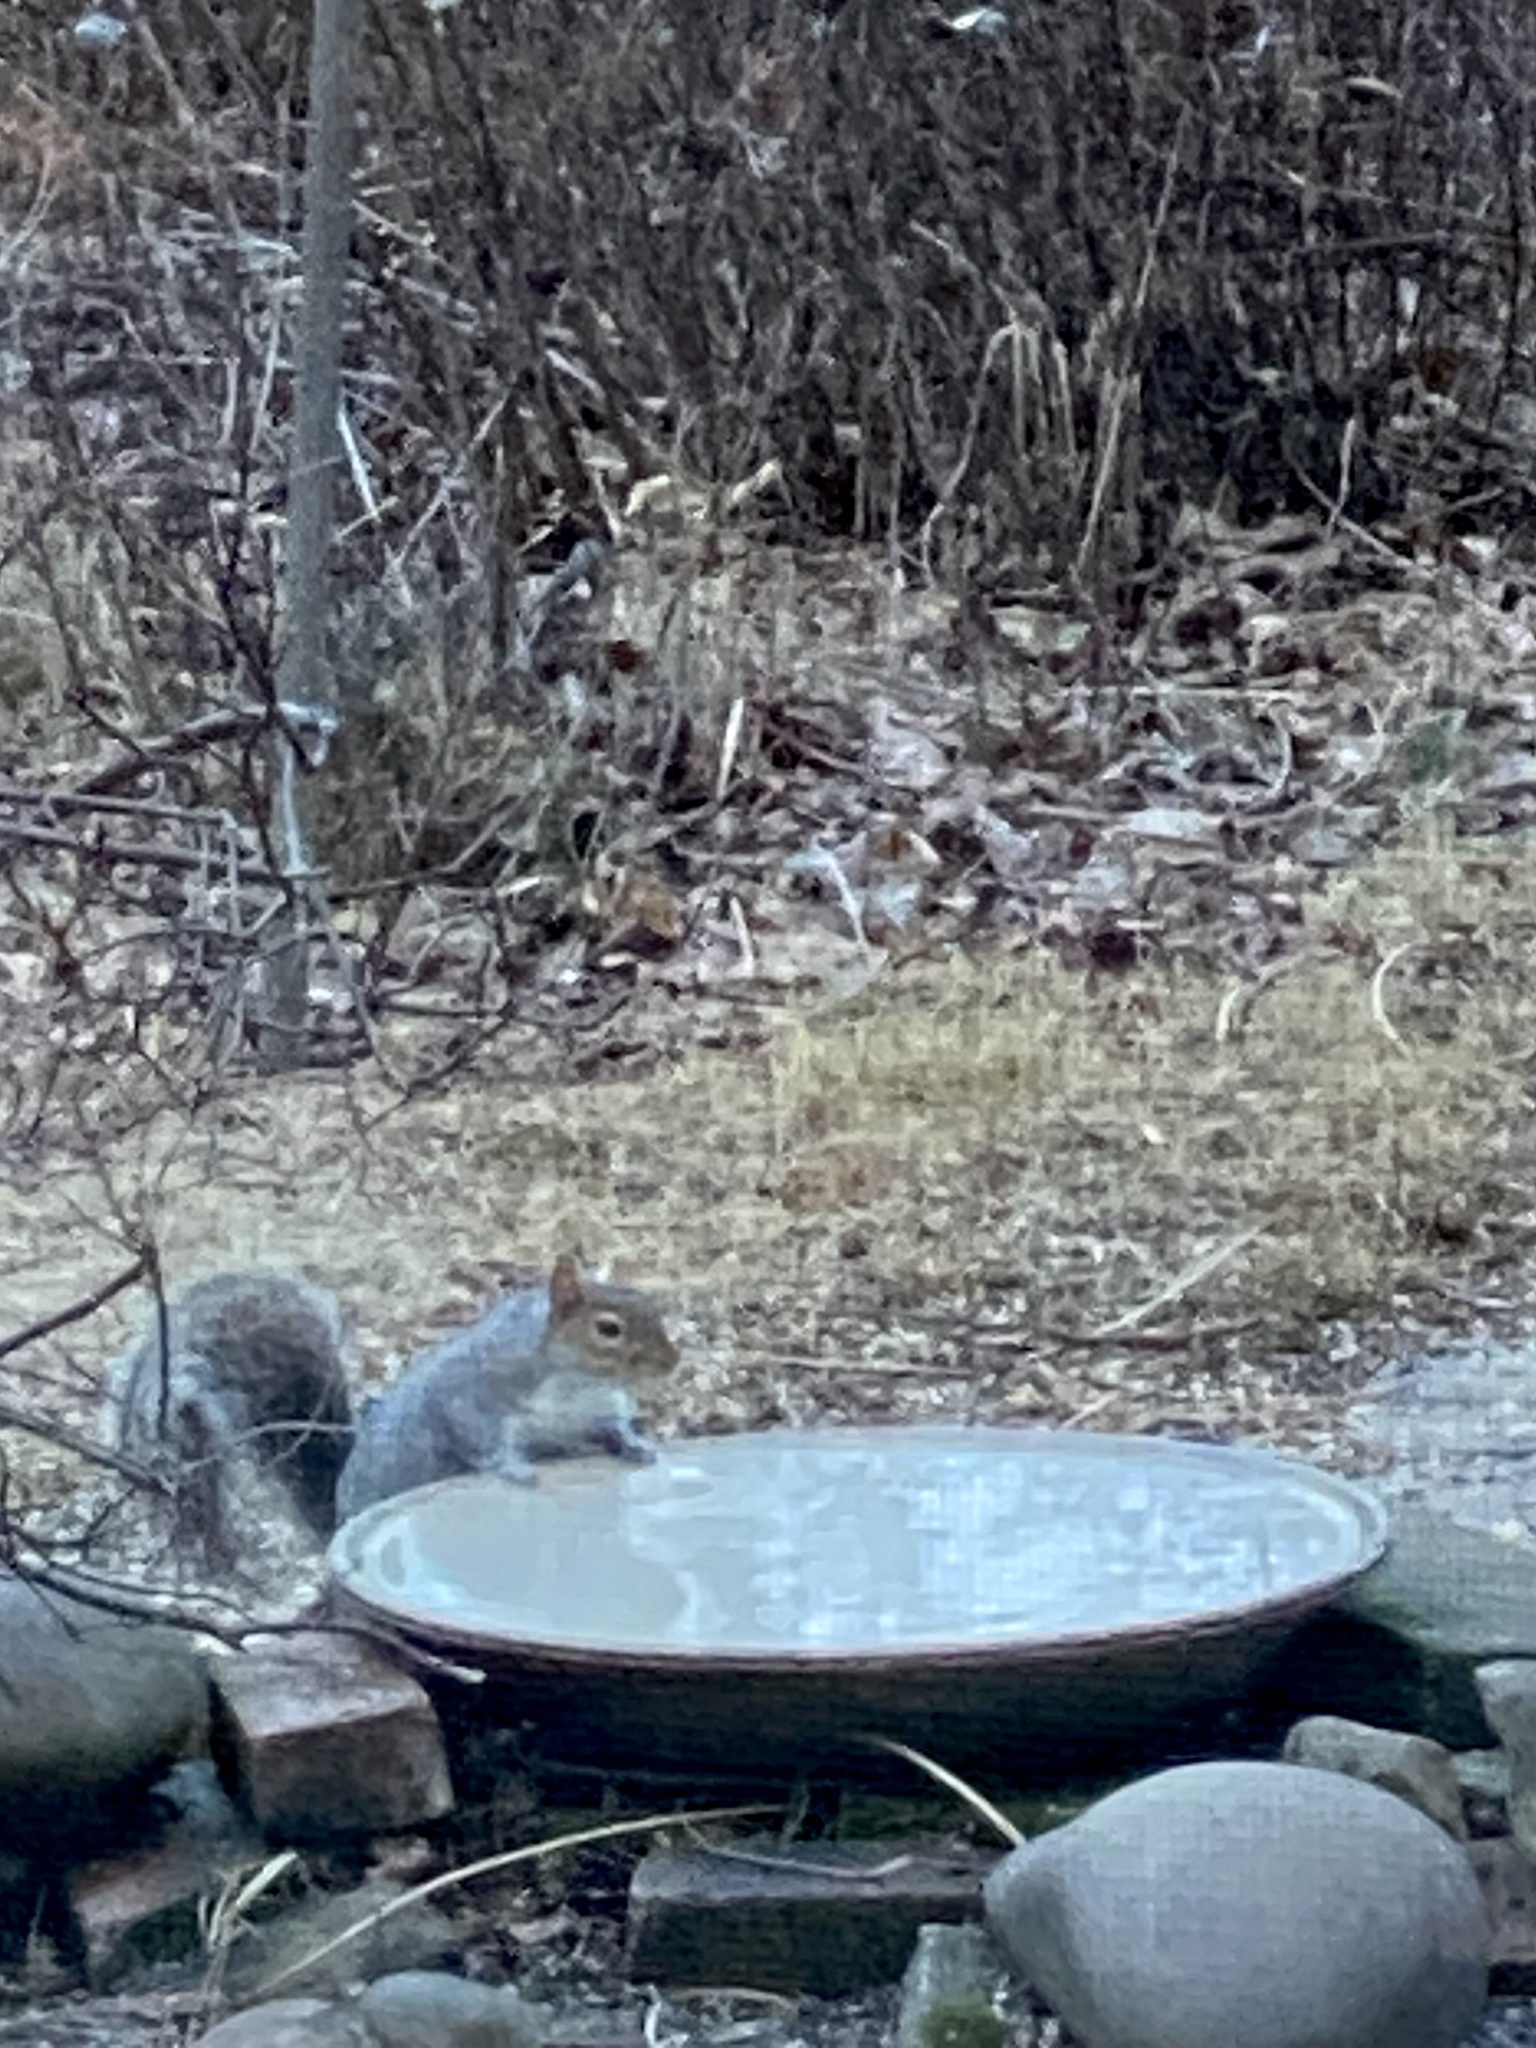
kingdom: Animalia
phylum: Chordata
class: Mammalia
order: Rodentia
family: Sciuridae
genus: Sciurus
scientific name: Sciurus carolinensis
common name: Eastern gray squirrel
